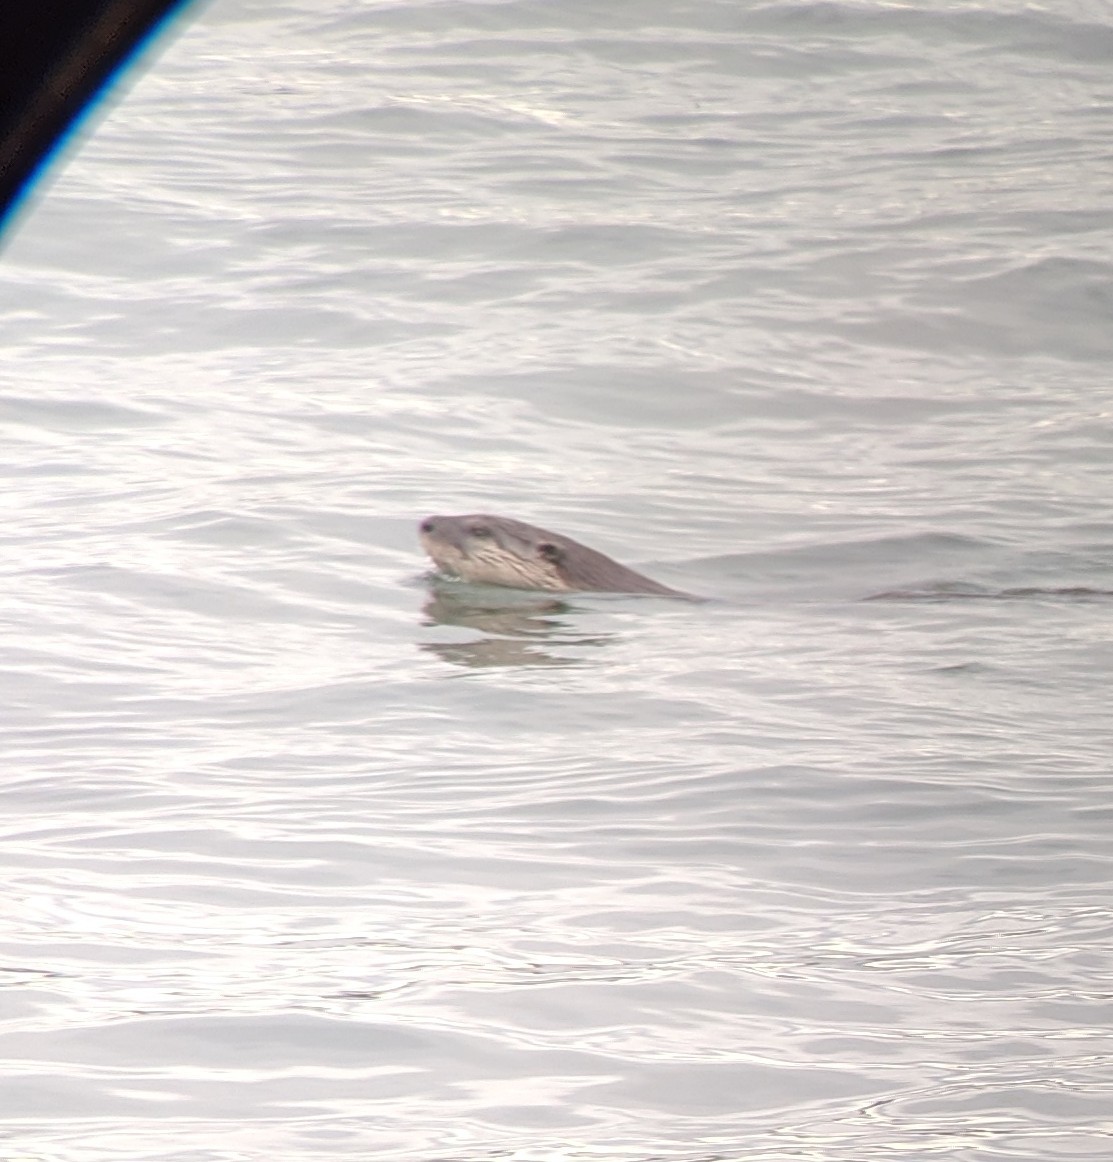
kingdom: Animalia
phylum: Chordata
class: Mammalia
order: Carnivora
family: Mustelidae
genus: Lontra
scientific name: Lontra canadensis
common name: North american river otter
